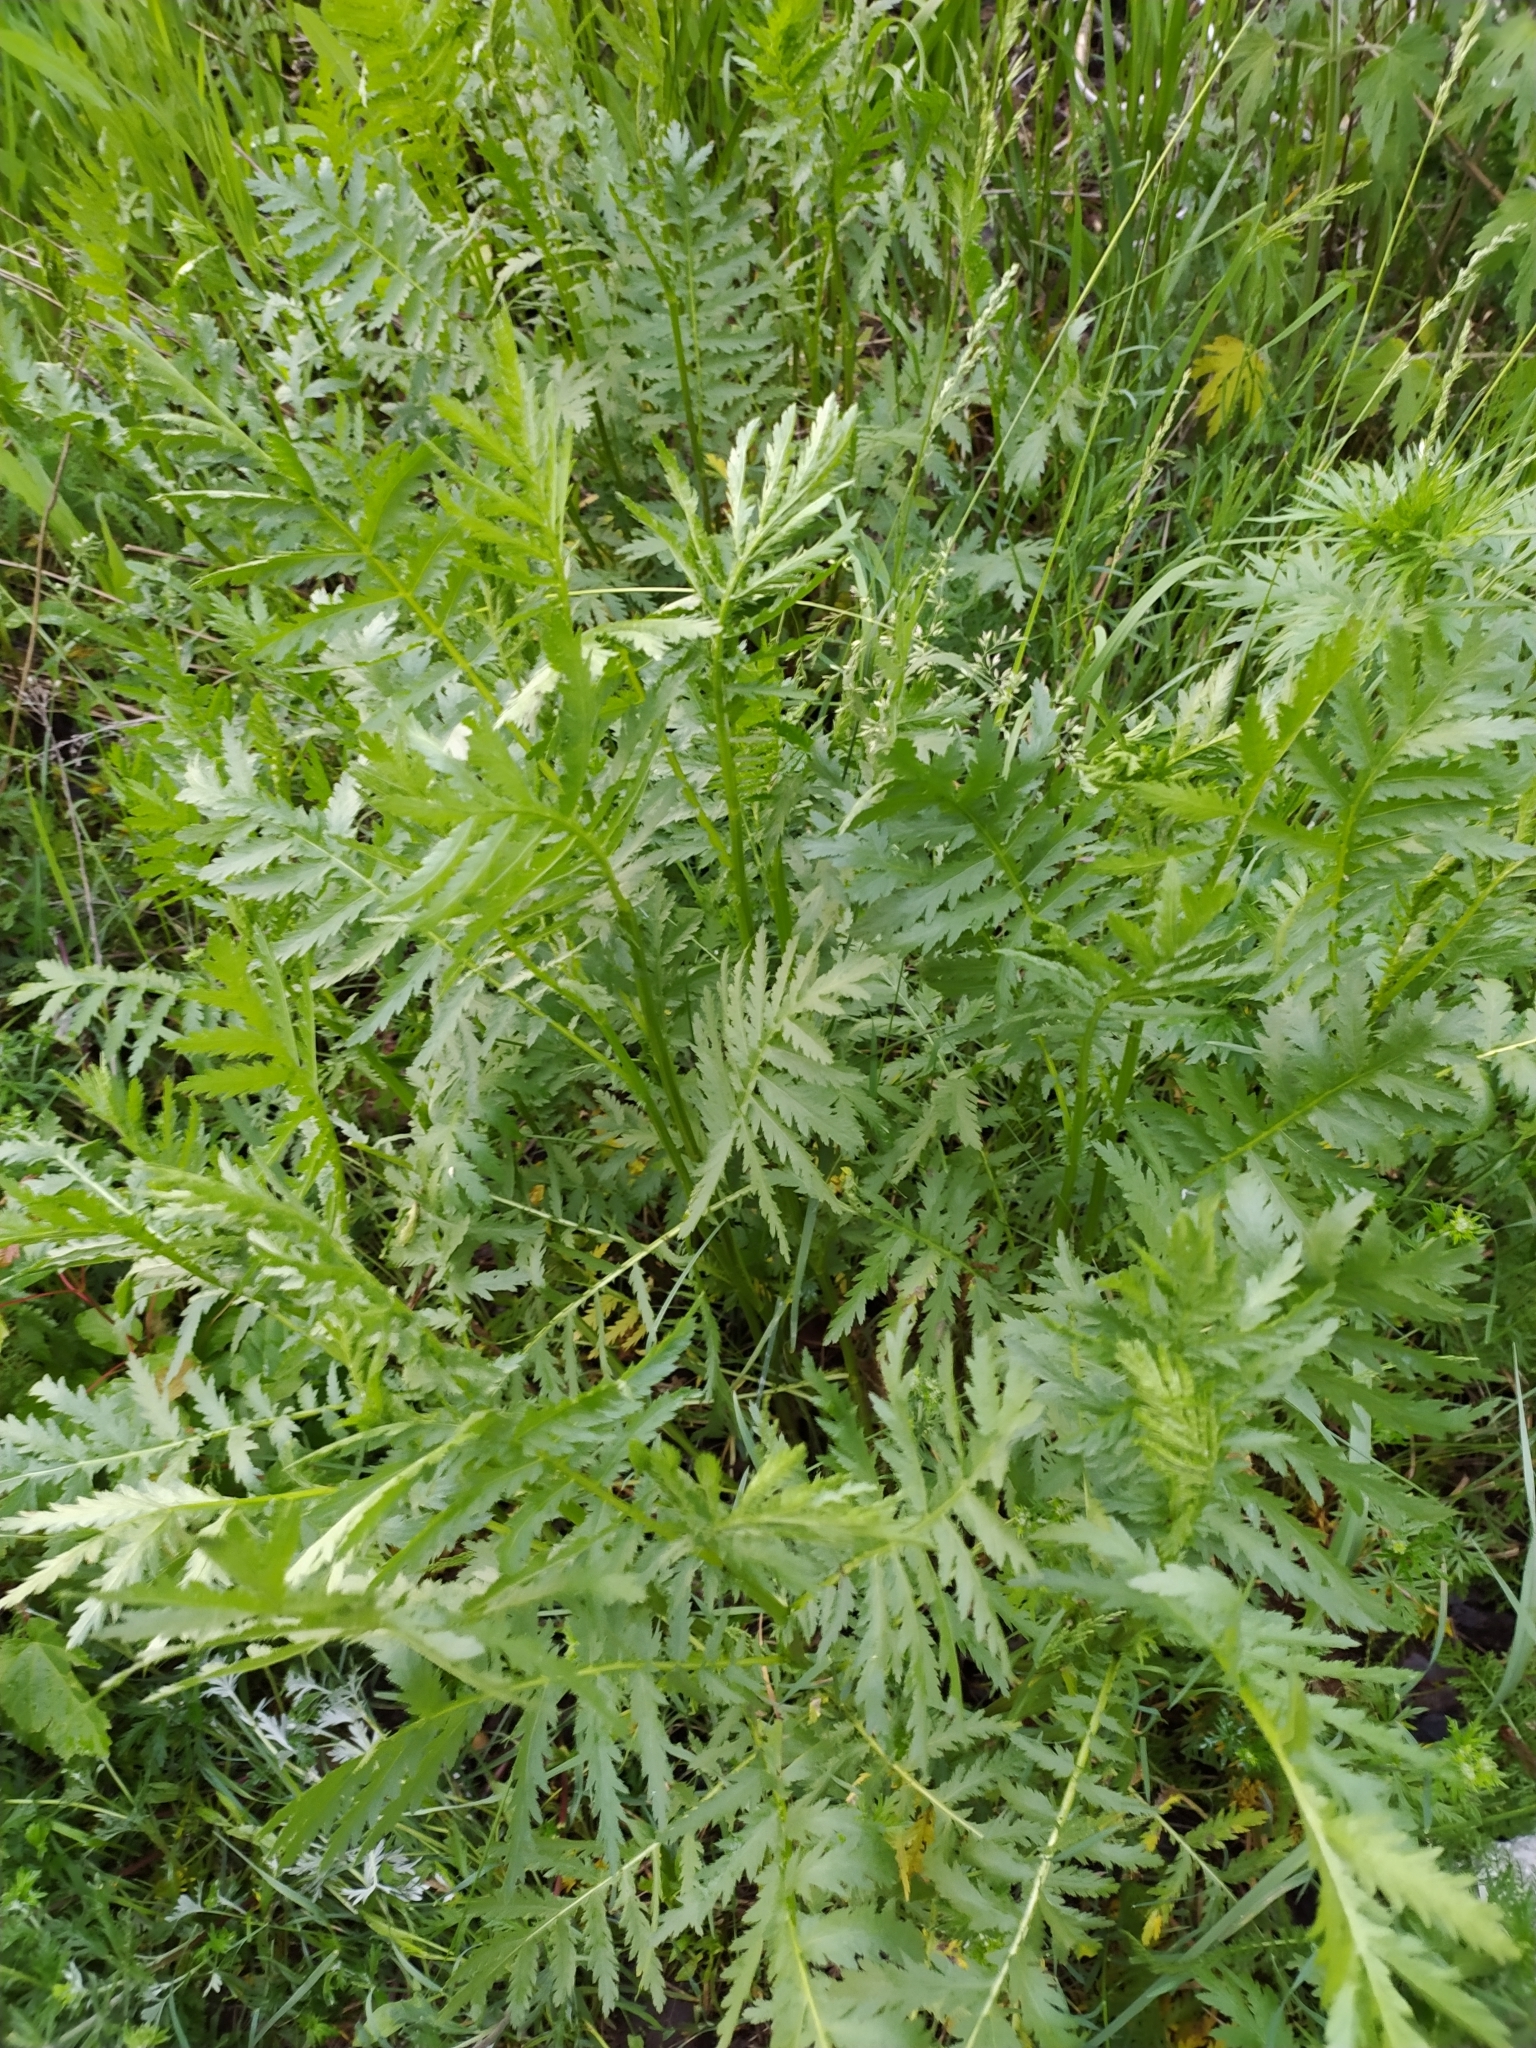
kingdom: Plantae
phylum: Tracheophyta
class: Magnoliopsida
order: Asterales
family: Asteraceae
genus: Tanacetum
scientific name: Tanacetum vulgare
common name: Common tansy
